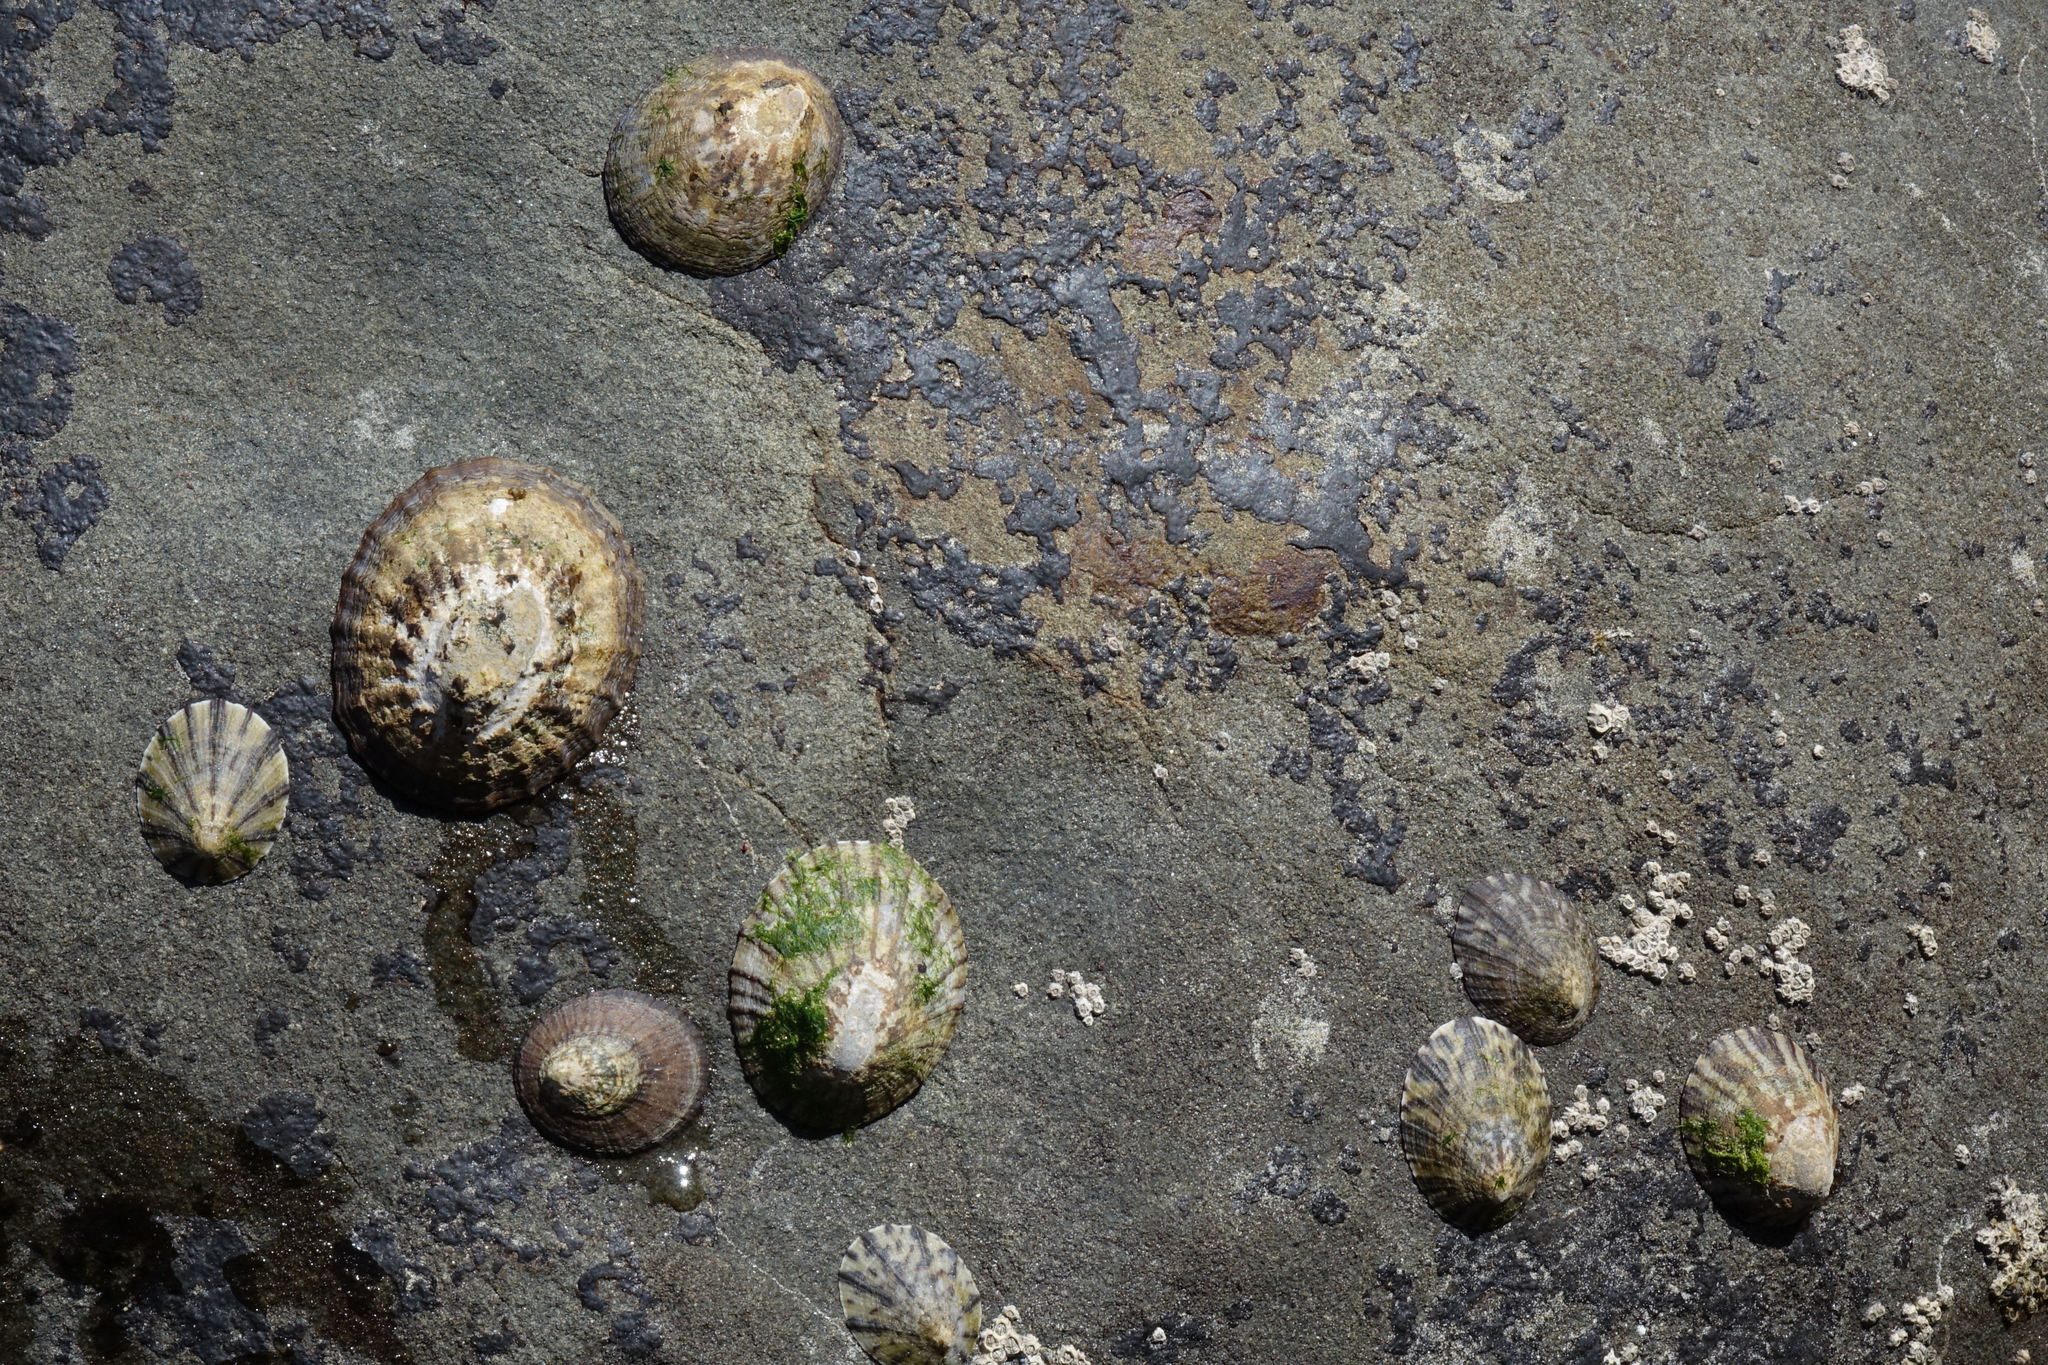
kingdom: Animalia
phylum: Mollusca
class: Gastropoda
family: Nacellidae
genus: Cellana
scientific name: Cellana radians
